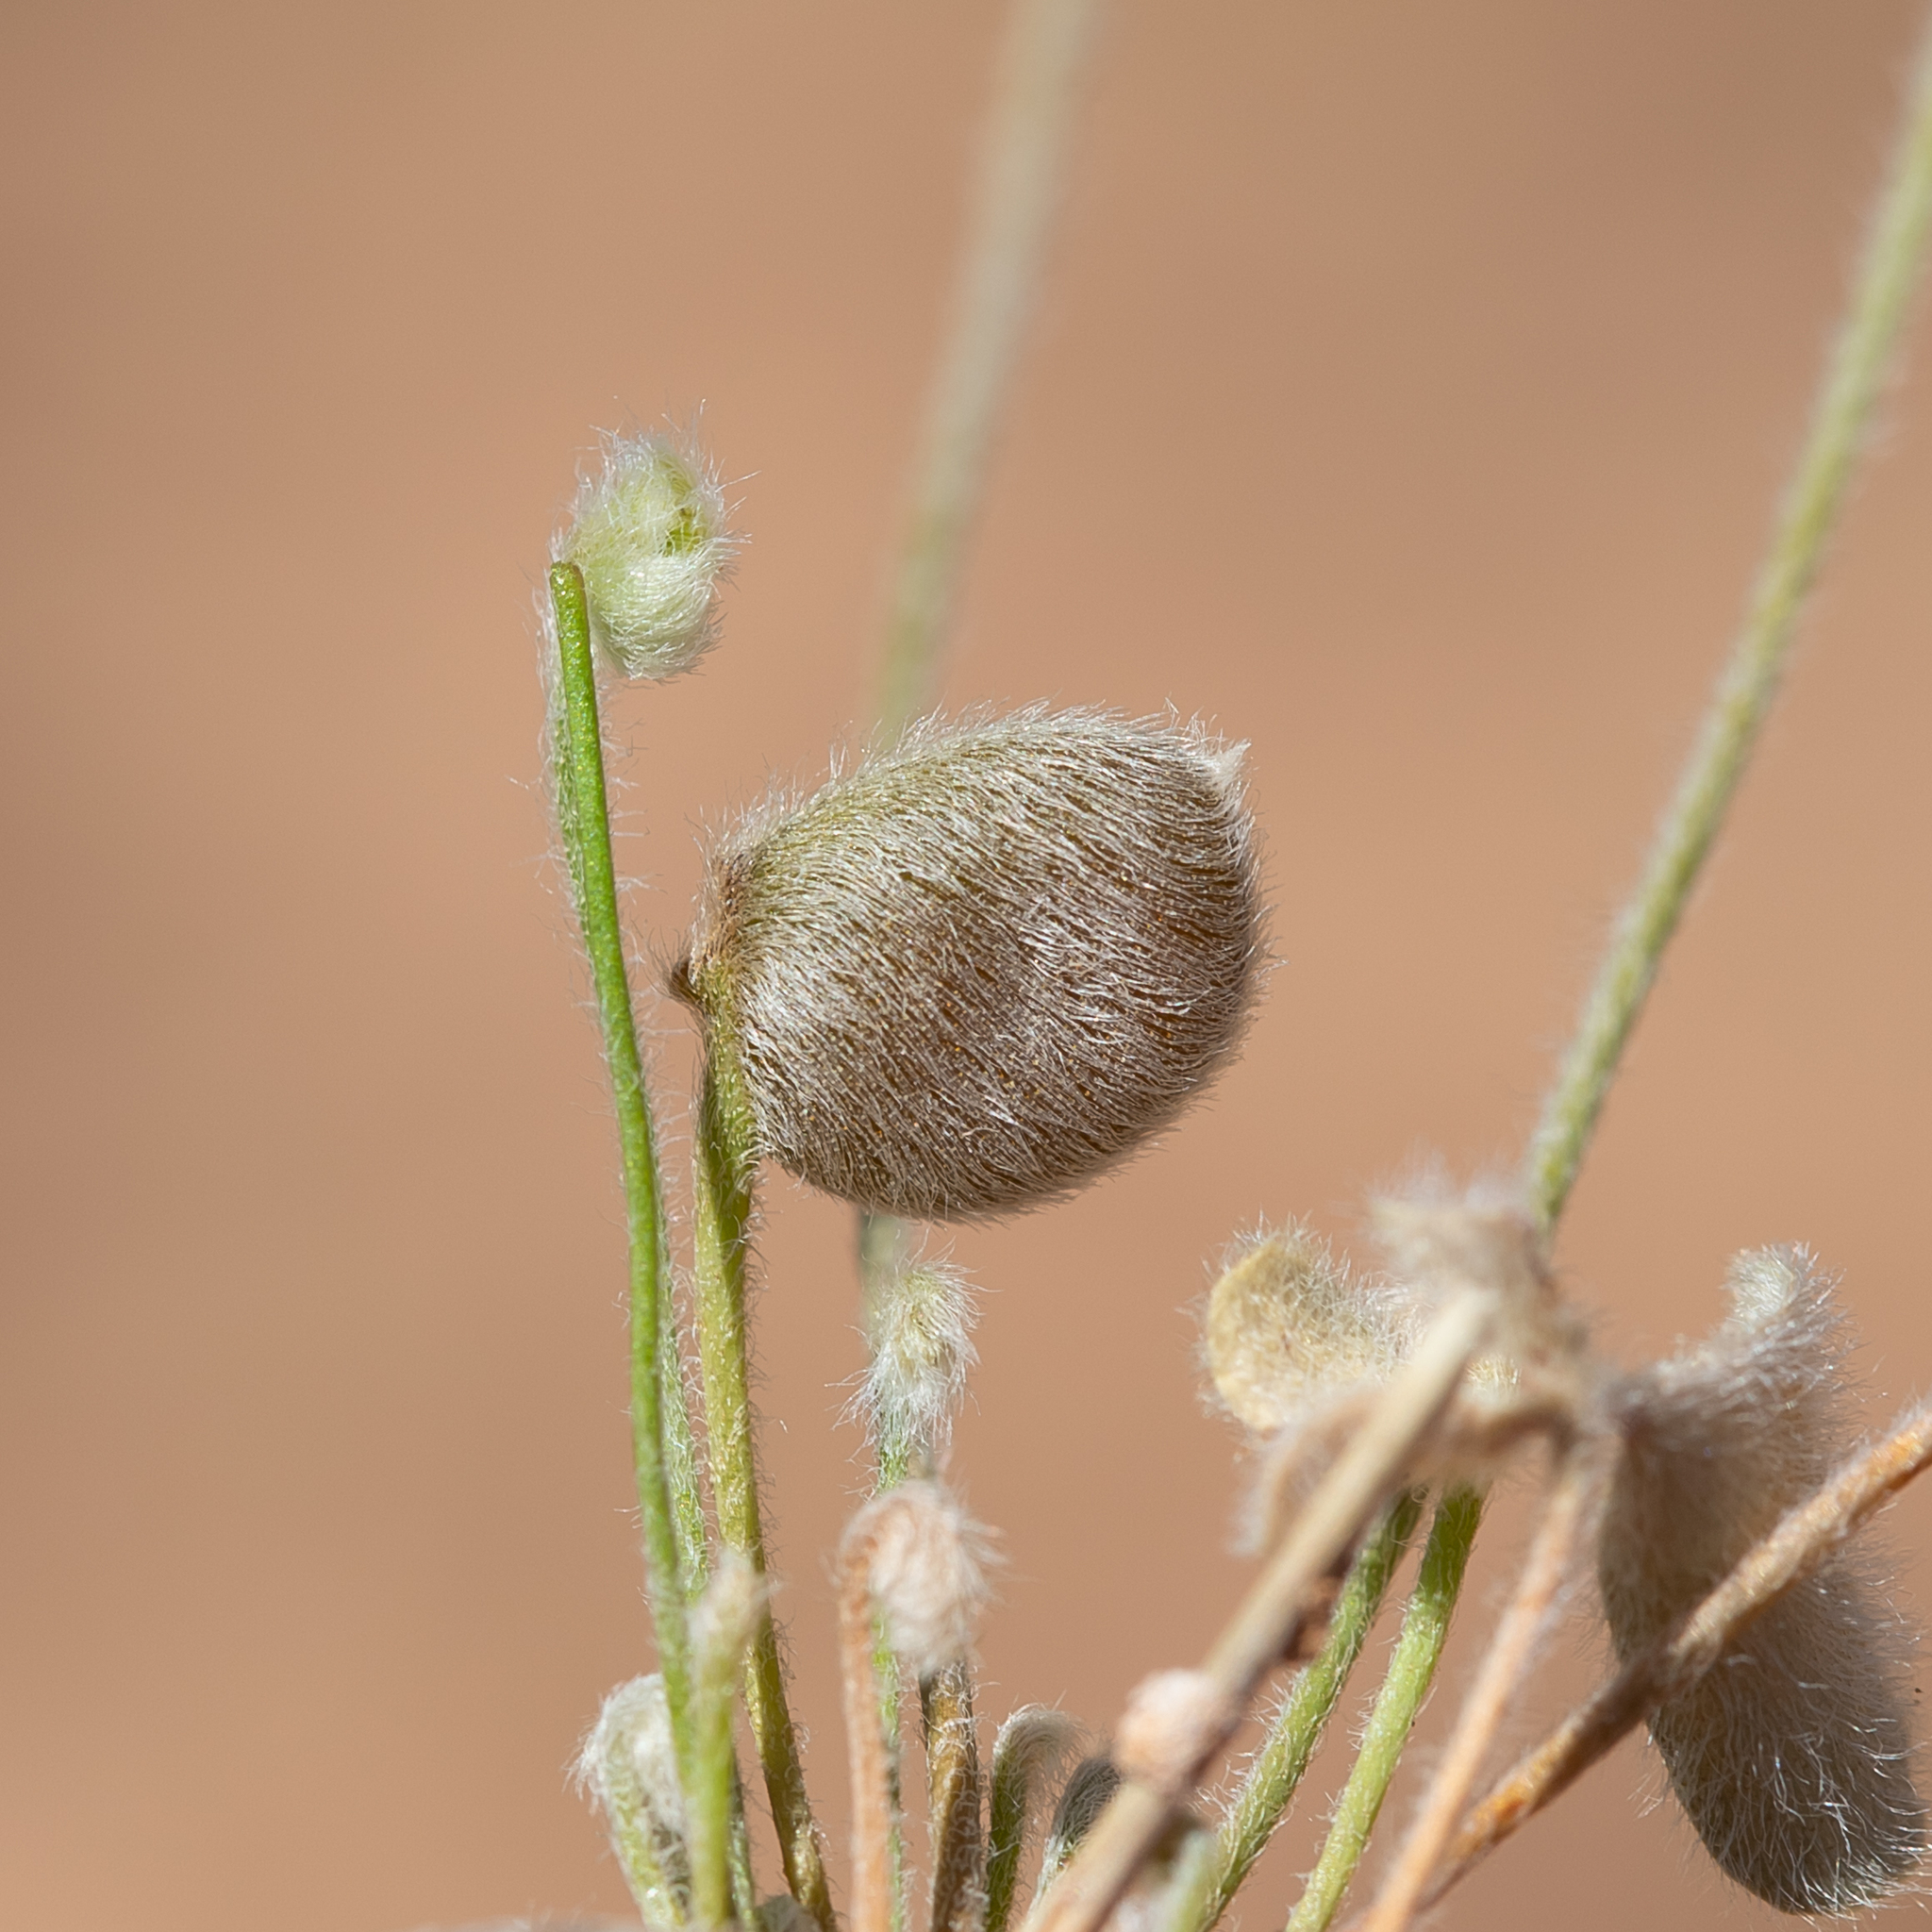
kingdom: Plantae
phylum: Tracheophyta
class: Polypodiopsida
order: Salviniales
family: Marsileaceae
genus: Marsilea
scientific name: Marsilea drummondii
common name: Nardoo
